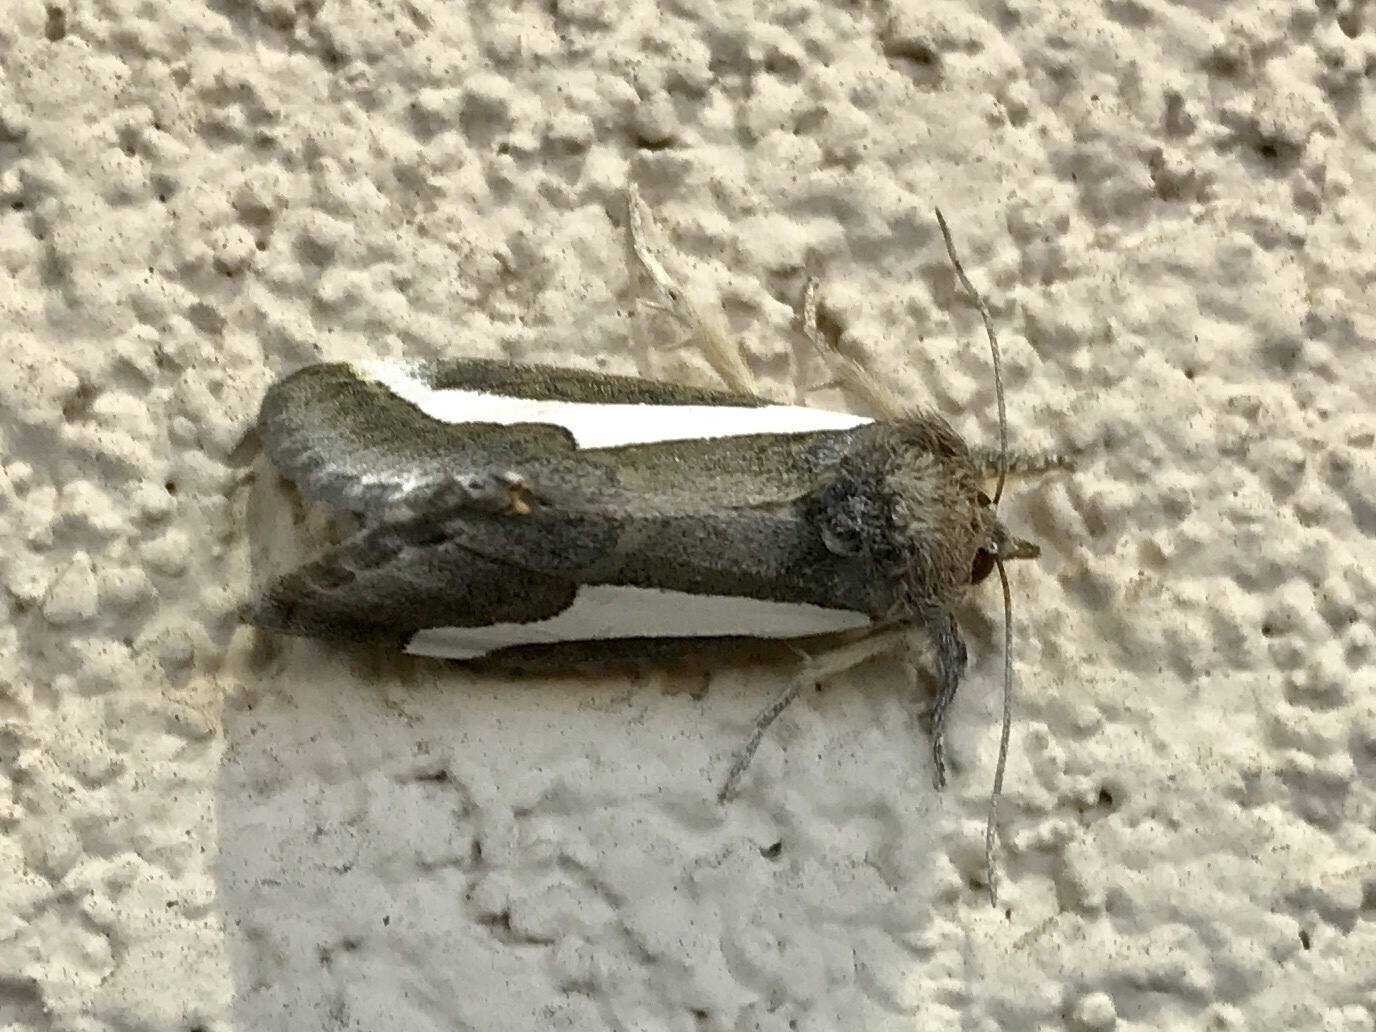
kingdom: Animalia
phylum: Arthropoda
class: Insecta
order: Lepidoptera
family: Noctuidae
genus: Euscirrhopterus
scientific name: Euscirrhopterus cosyra
